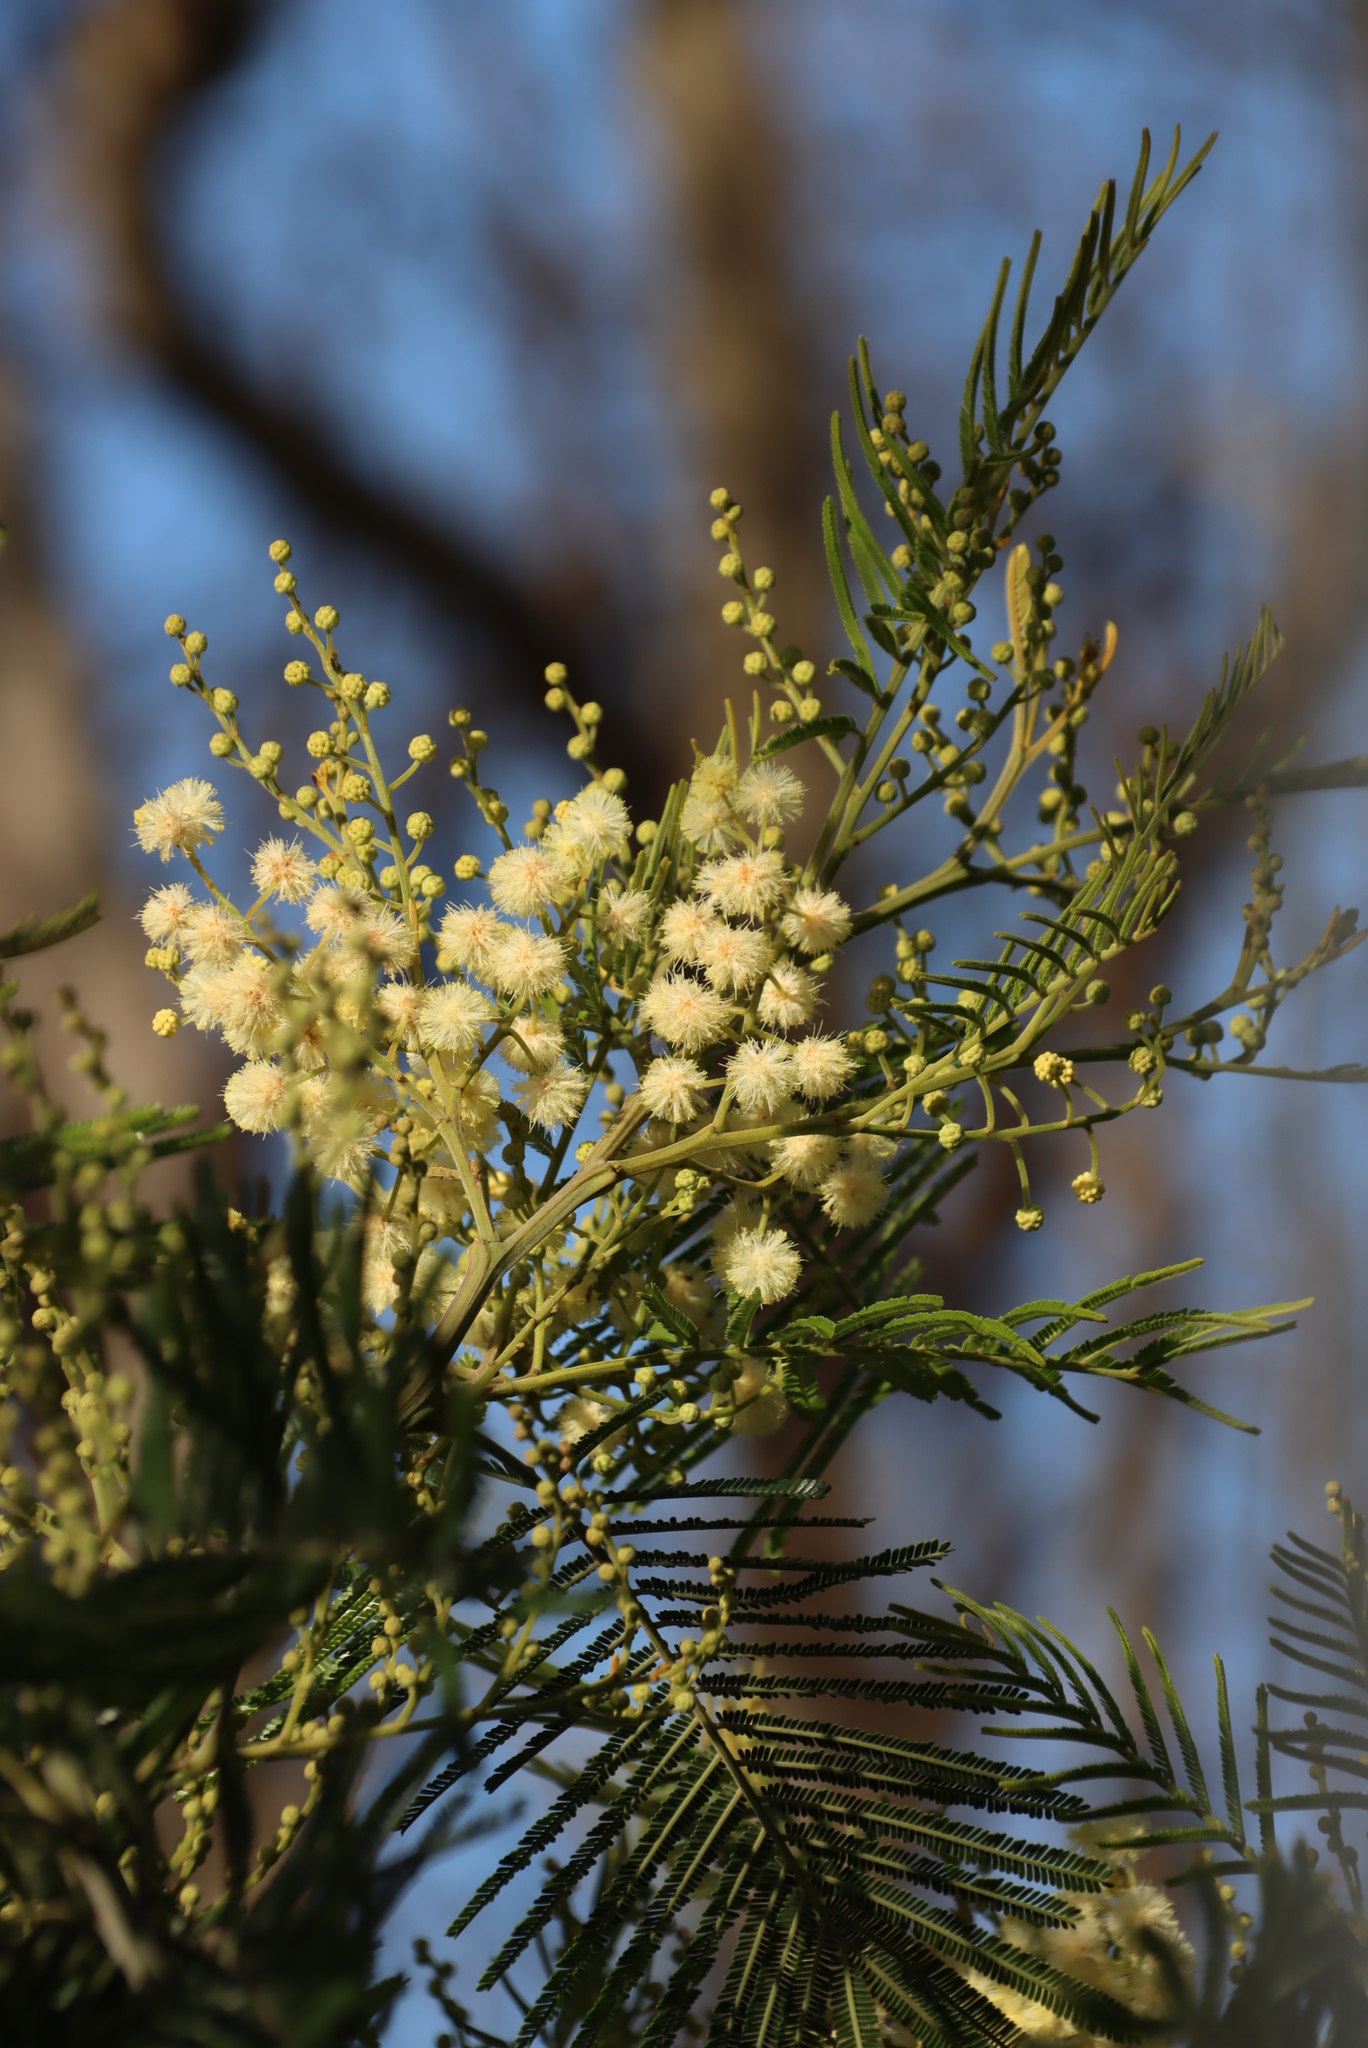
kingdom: Plantae
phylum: Tracheophyta
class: Magnoliopsida
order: Fabales
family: Fabaceae
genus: Acacia
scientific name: Acacia mearnsii
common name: Black wattle
